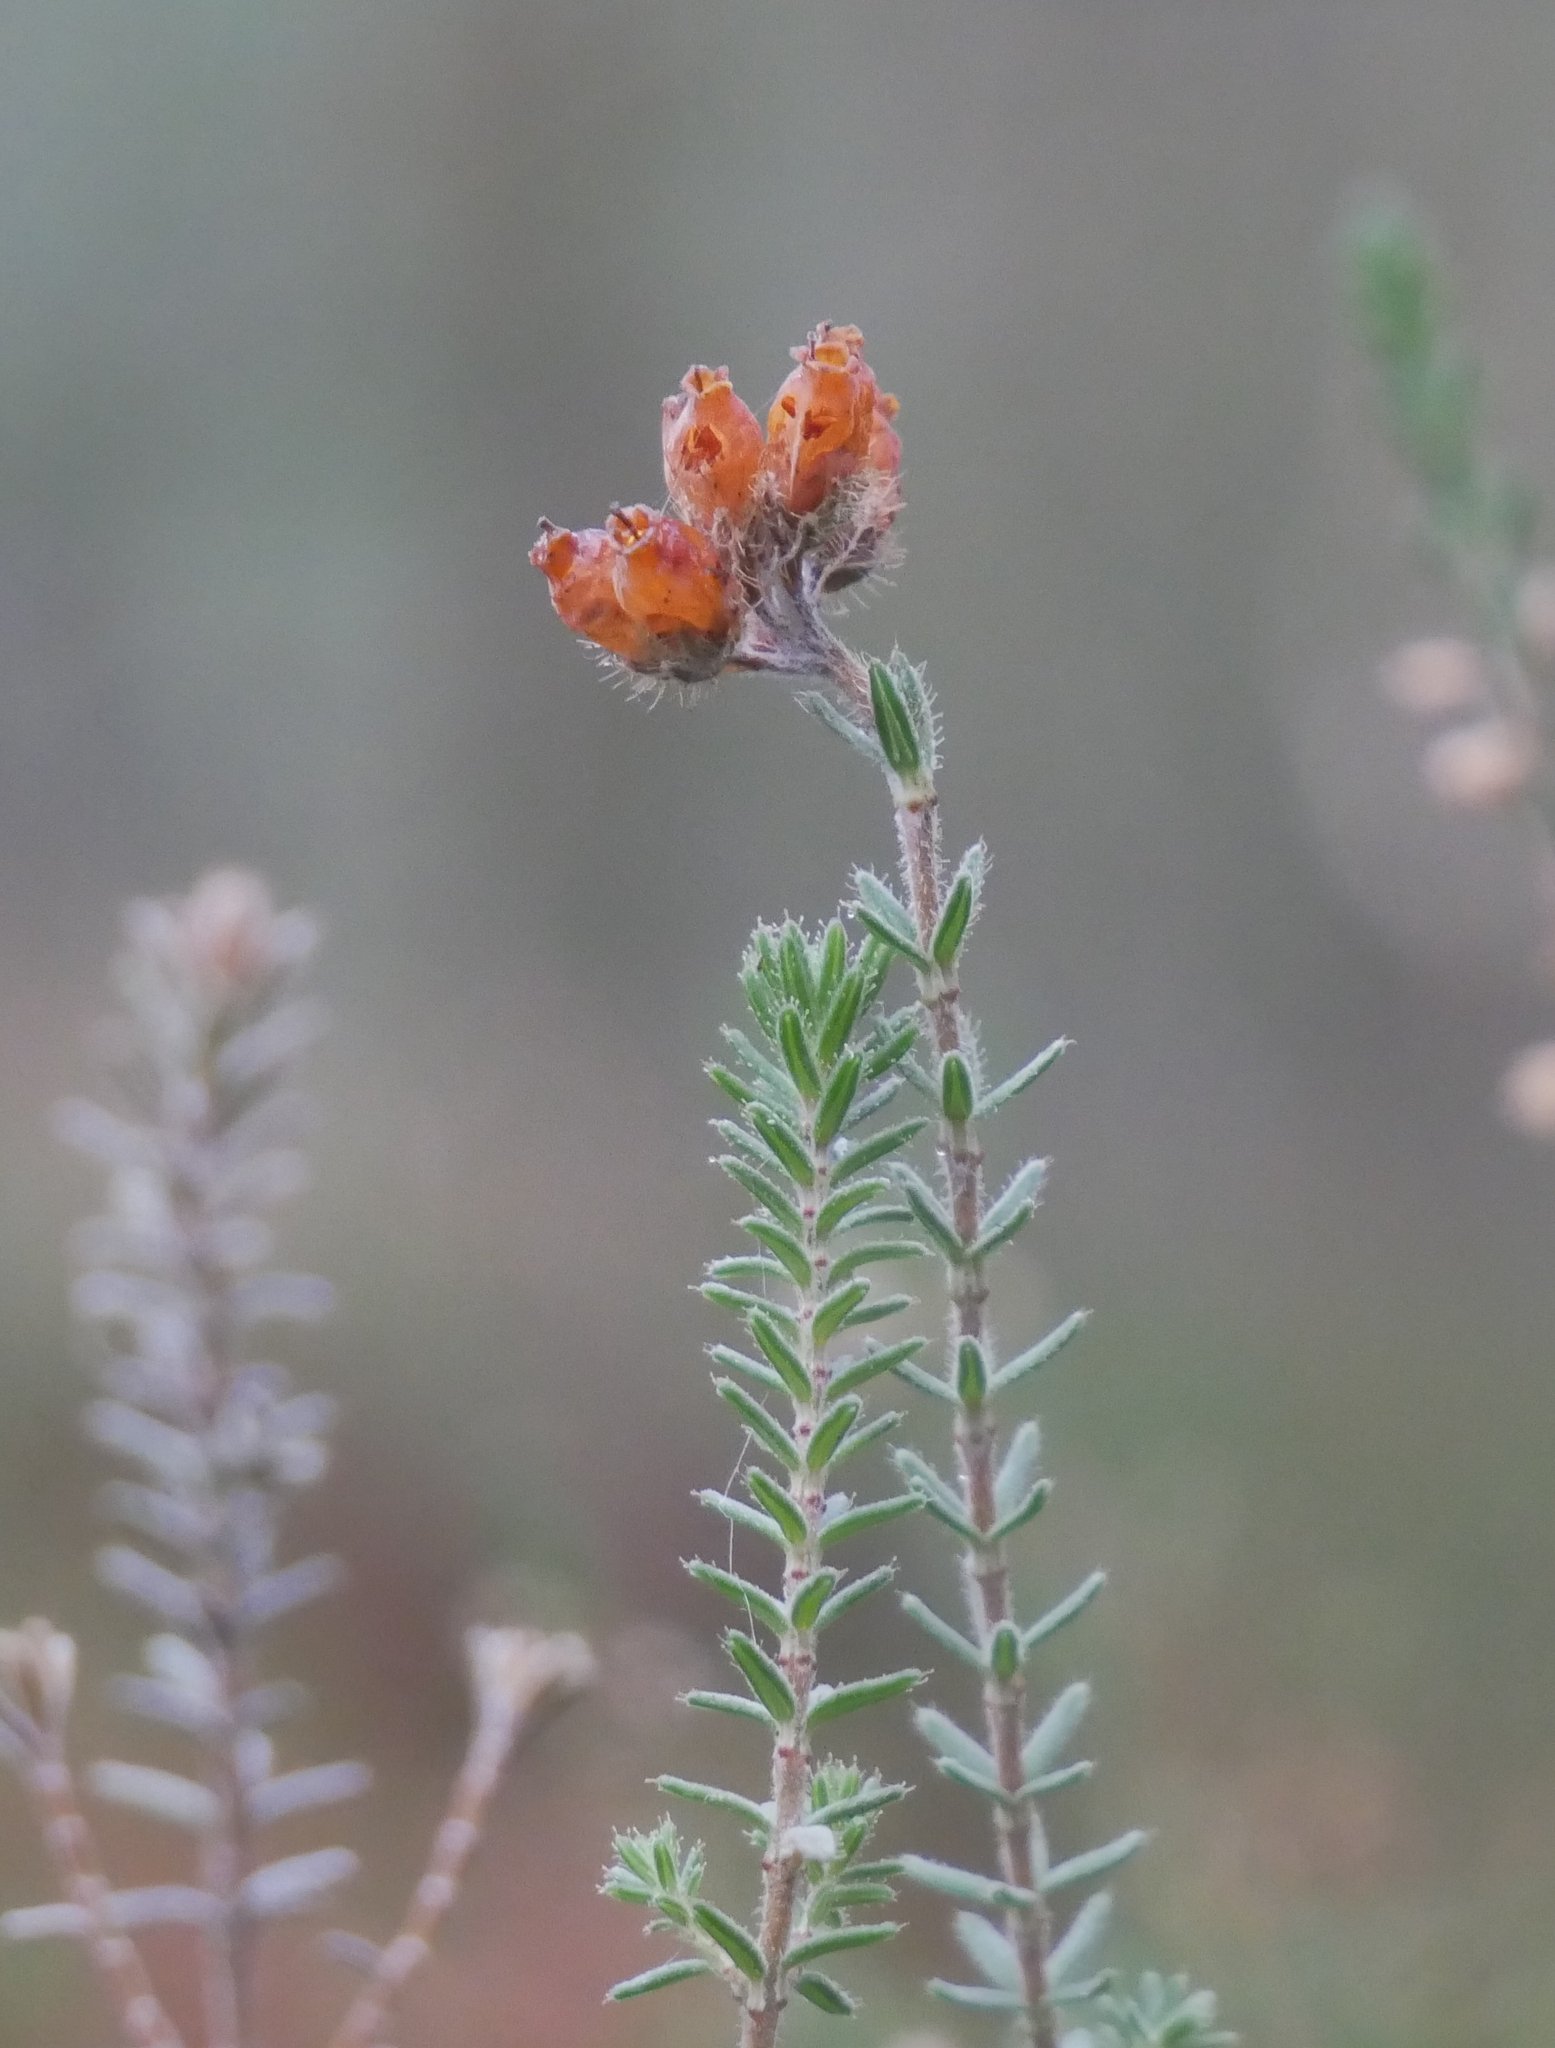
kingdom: Plantae
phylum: Tracheophyta
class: Magnoliopsida
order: Ericales
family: Ericaceae
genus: Erica
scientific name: Erica tetralix
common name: Cross-leaved heath
